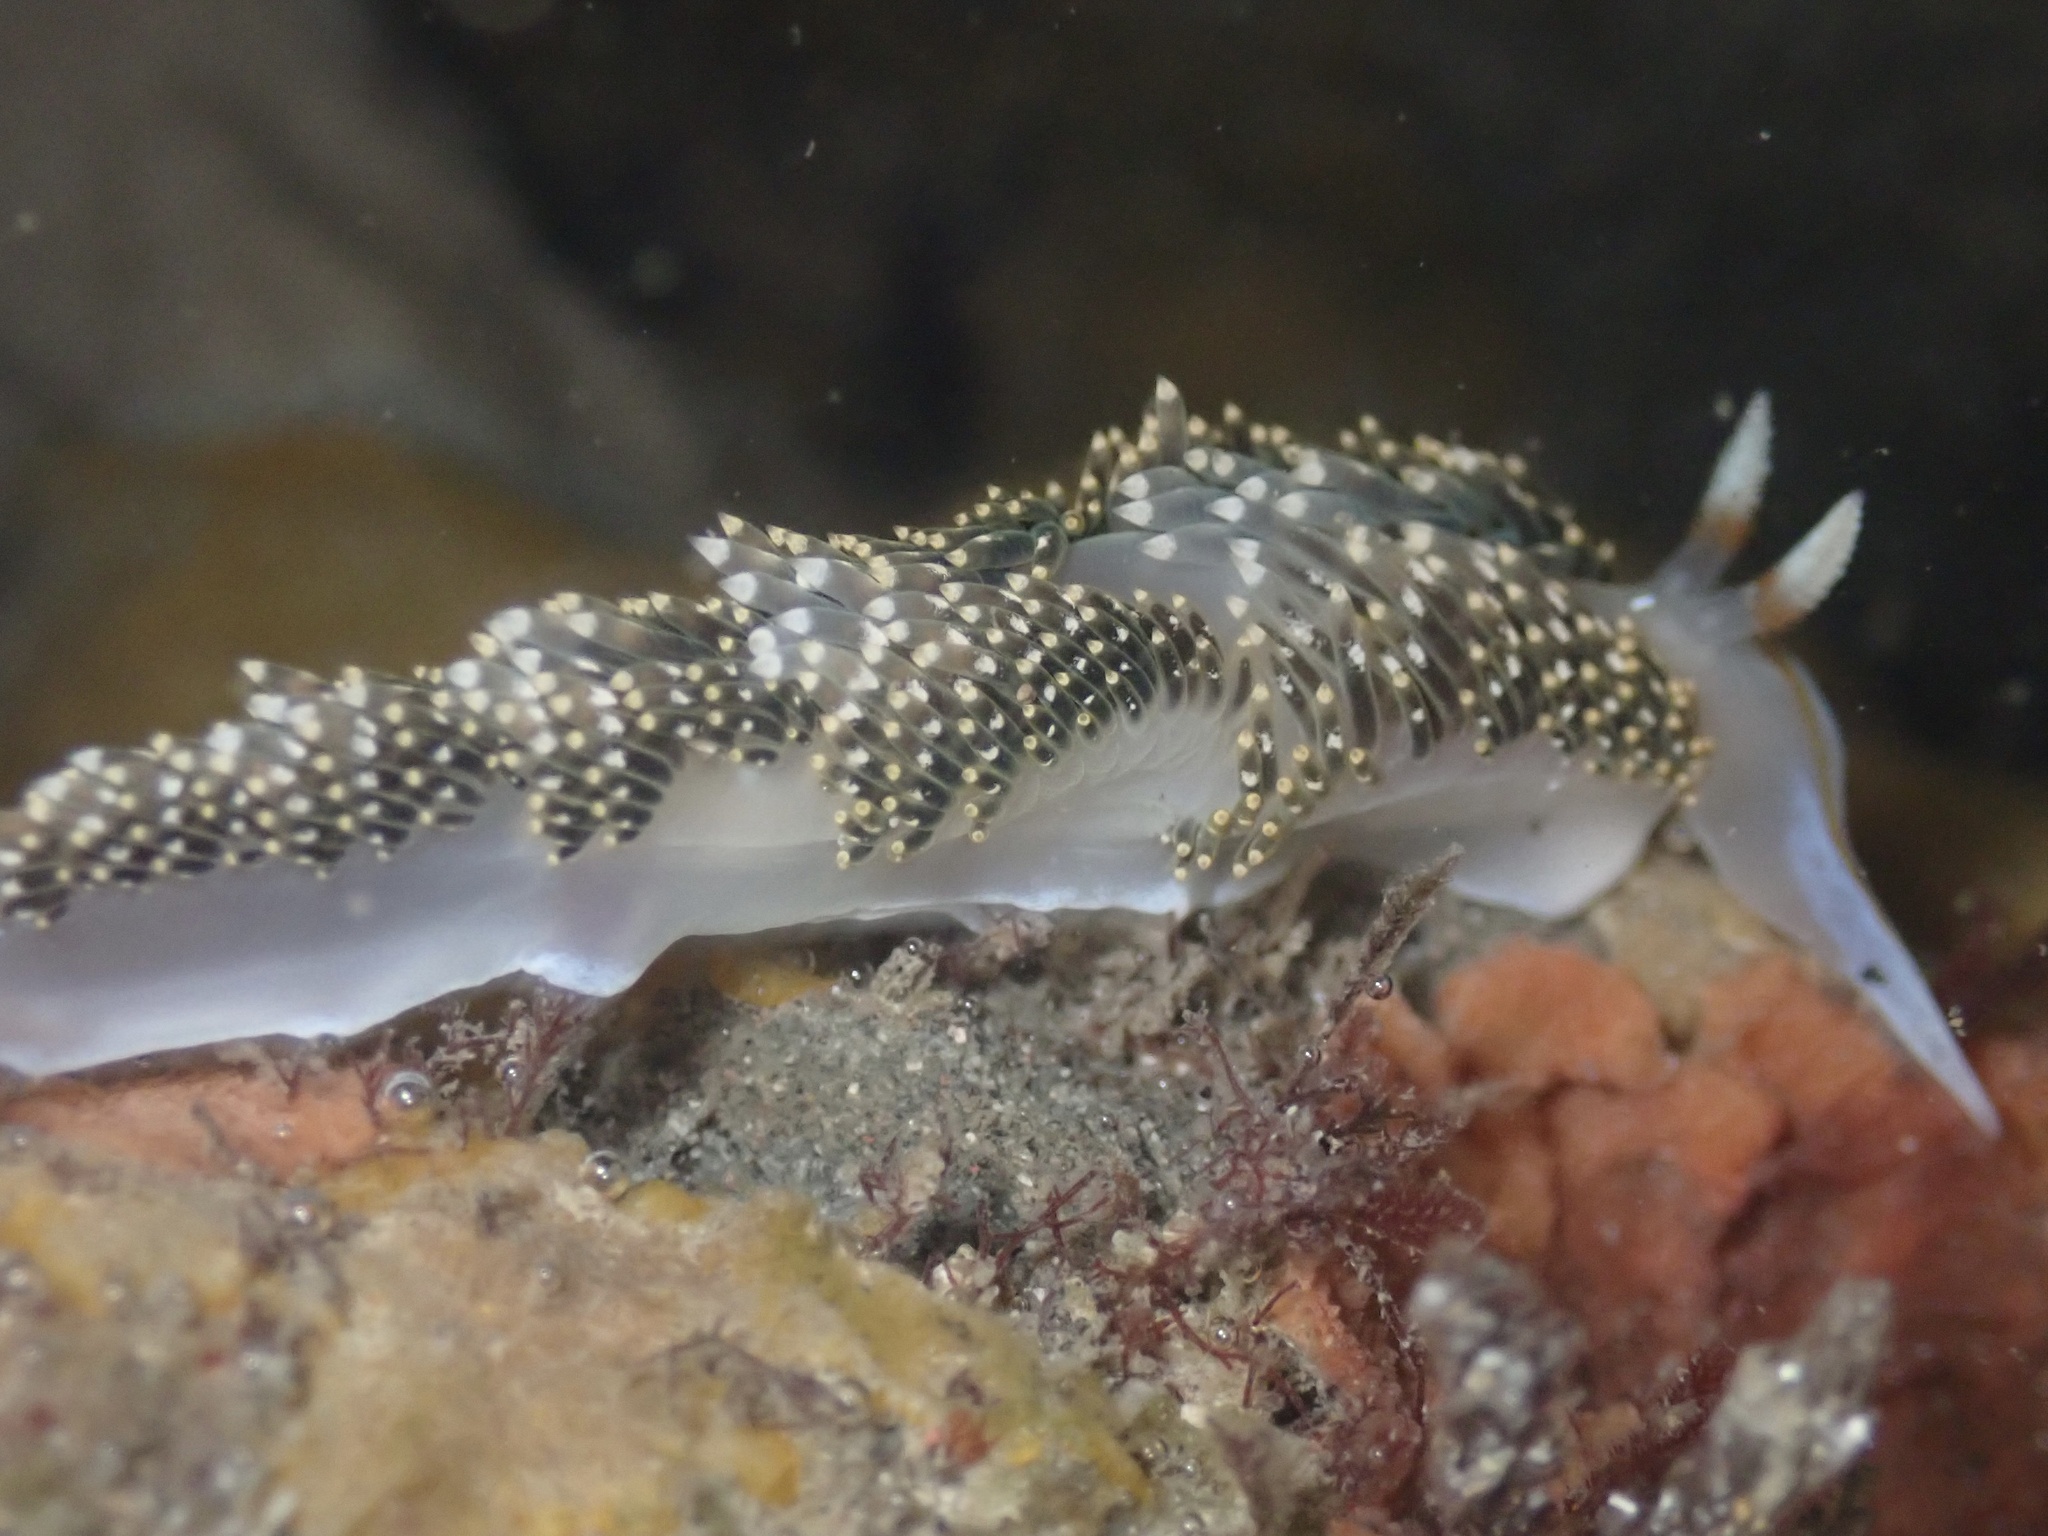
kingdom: Animalia
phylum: Mollusca
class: Gastropoda
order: Nudibranchia
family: Facelinidae
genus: Phidiana
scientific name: Phidiana hiltoni
